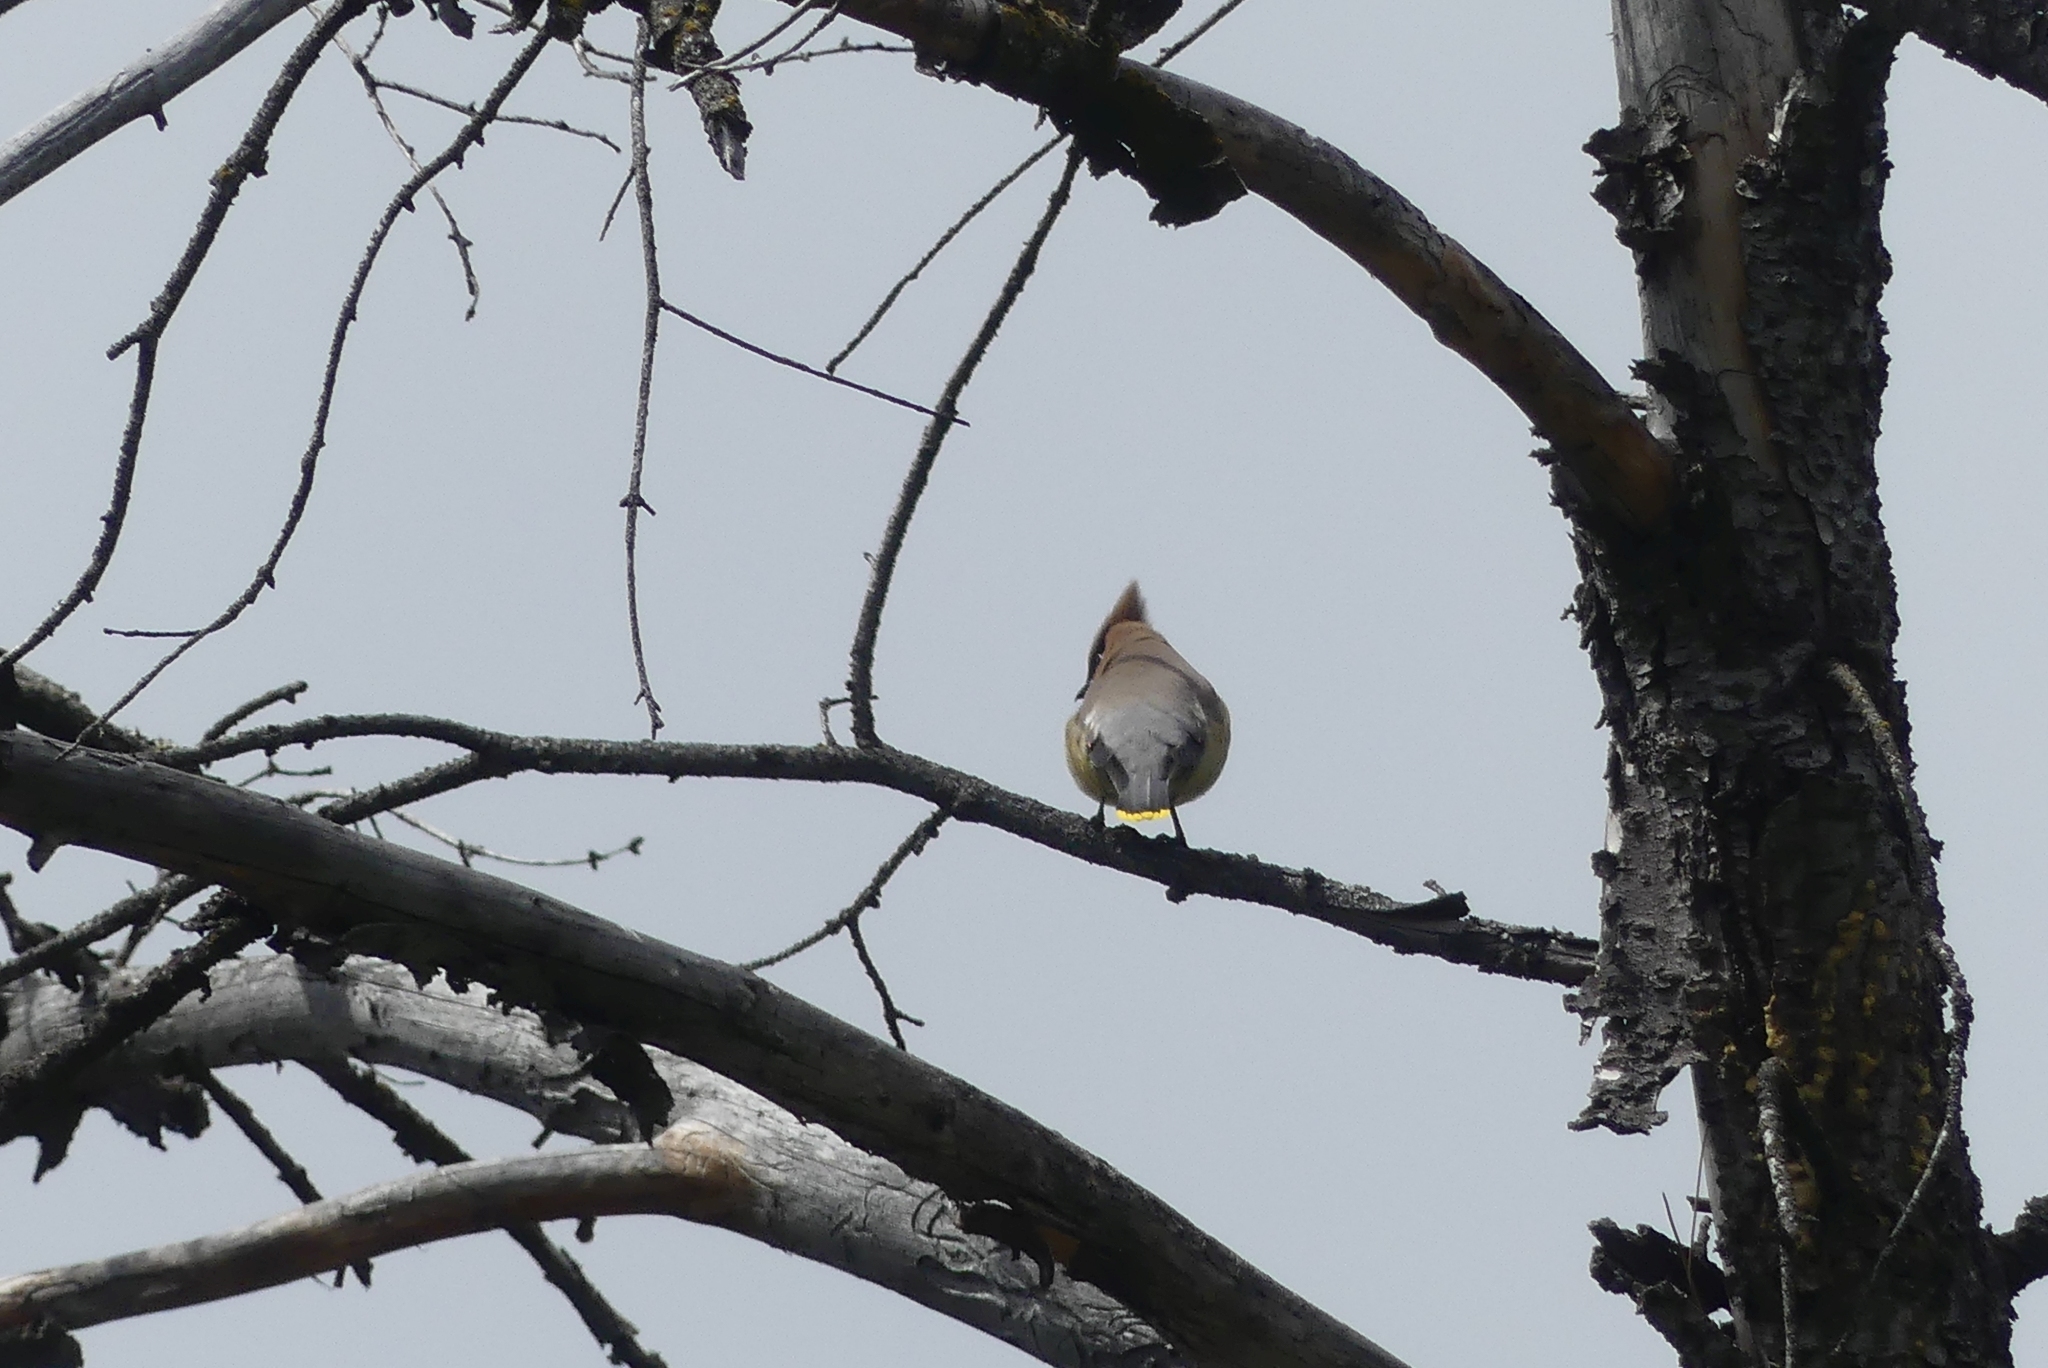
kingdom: Animalia
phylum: Chordata
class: Aves
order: Passeriformes
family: Bombycillidae
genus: Bombycilla
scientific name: Bombycilla cedrorum
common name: Cedar waxwing
